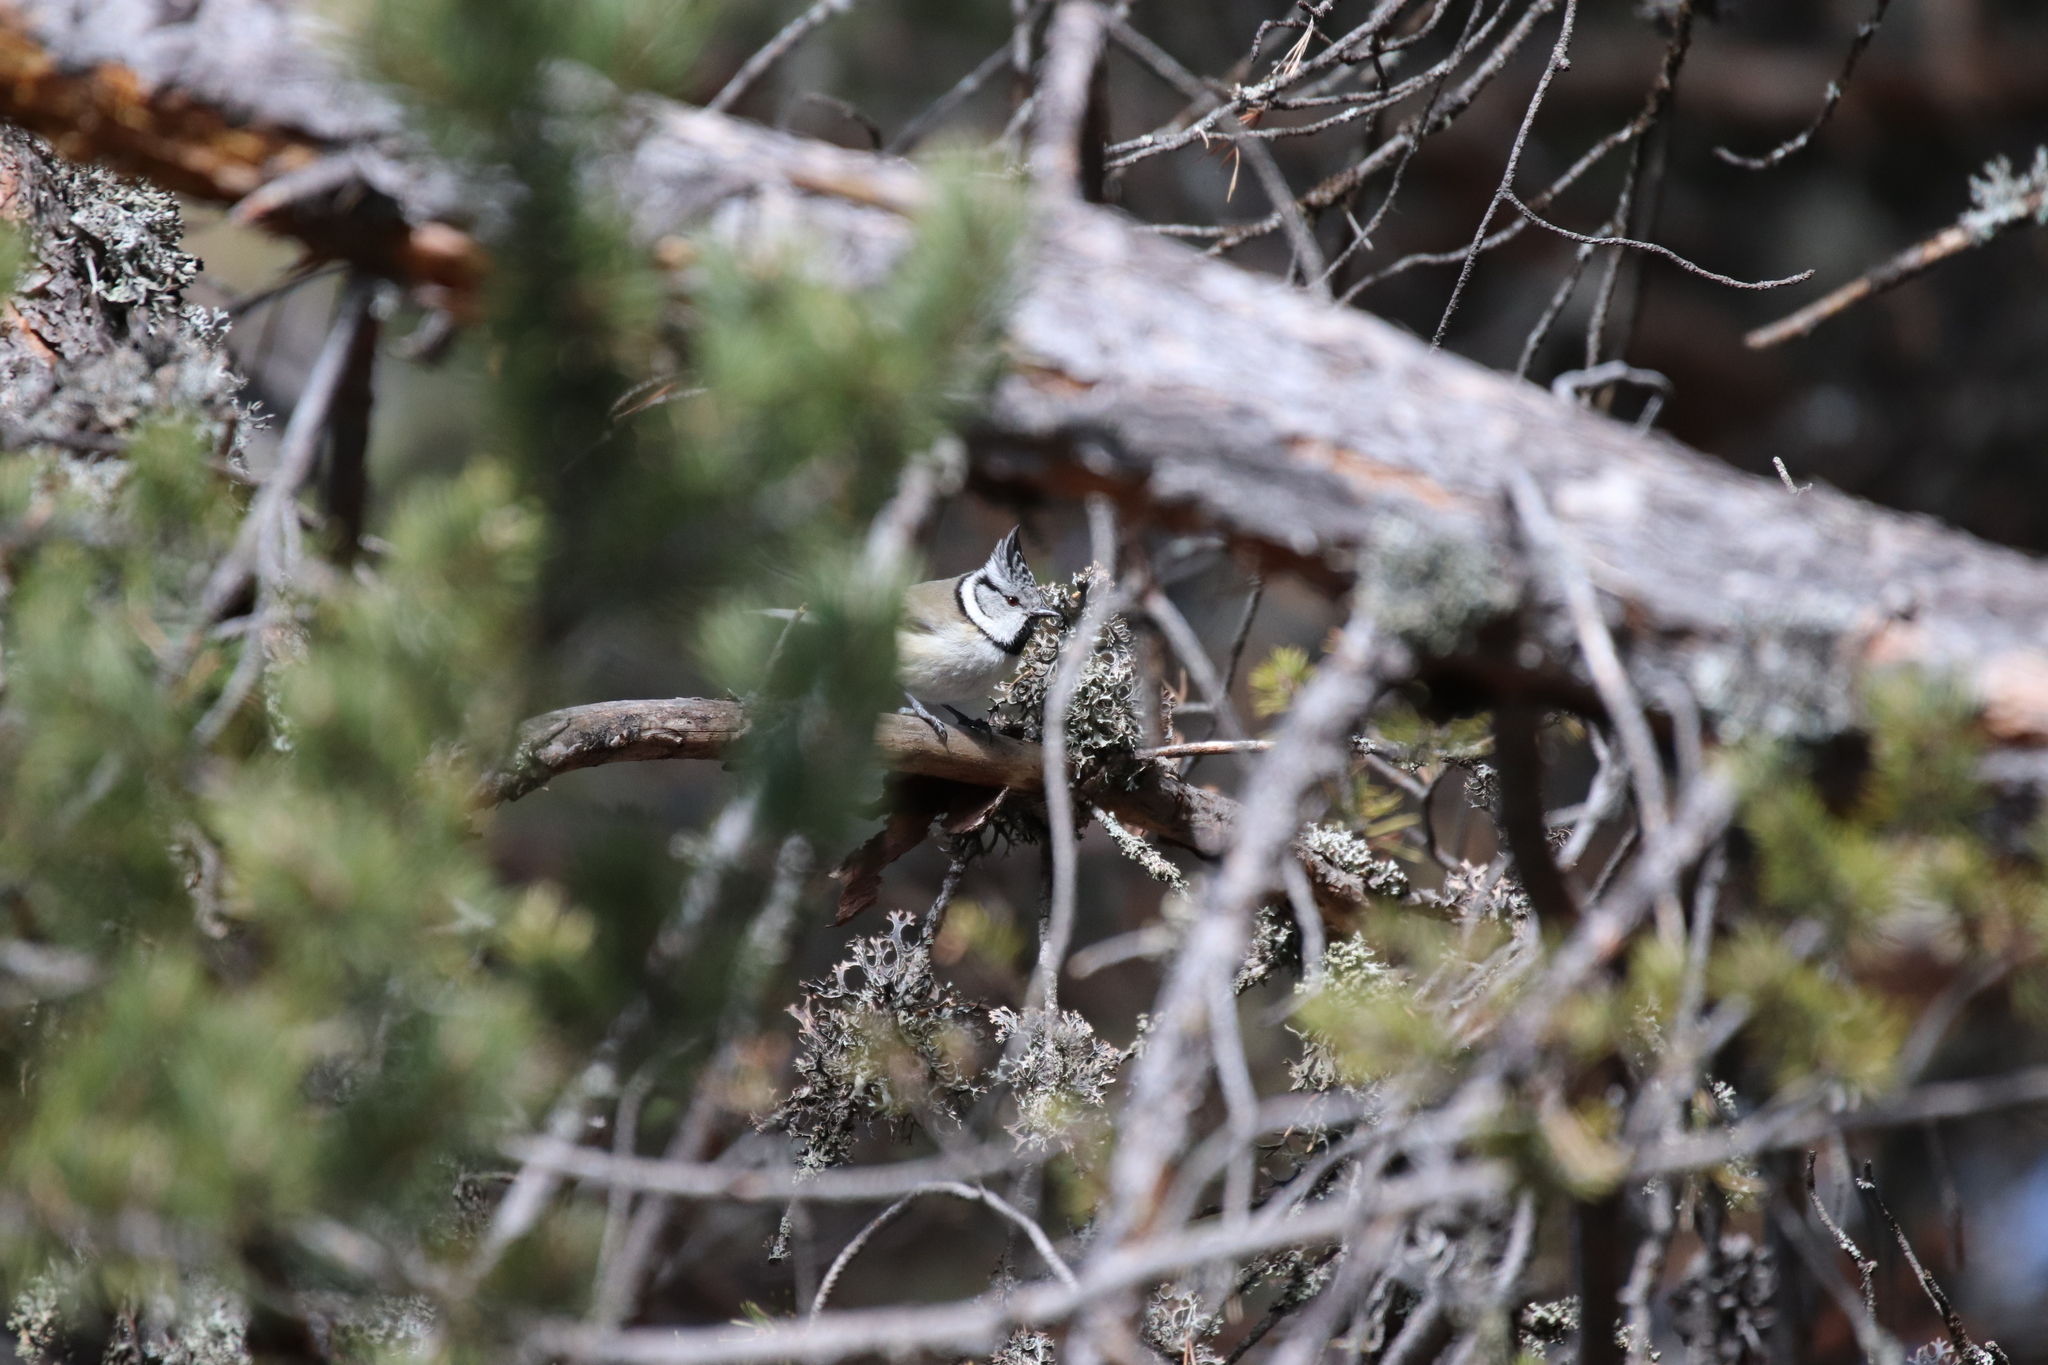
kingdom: Animalia
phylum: Chordata
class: Aves
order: Passeriformes
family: Paridae
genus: Lophophanes
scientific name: Lophophanes cristatus
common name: European crested tit
